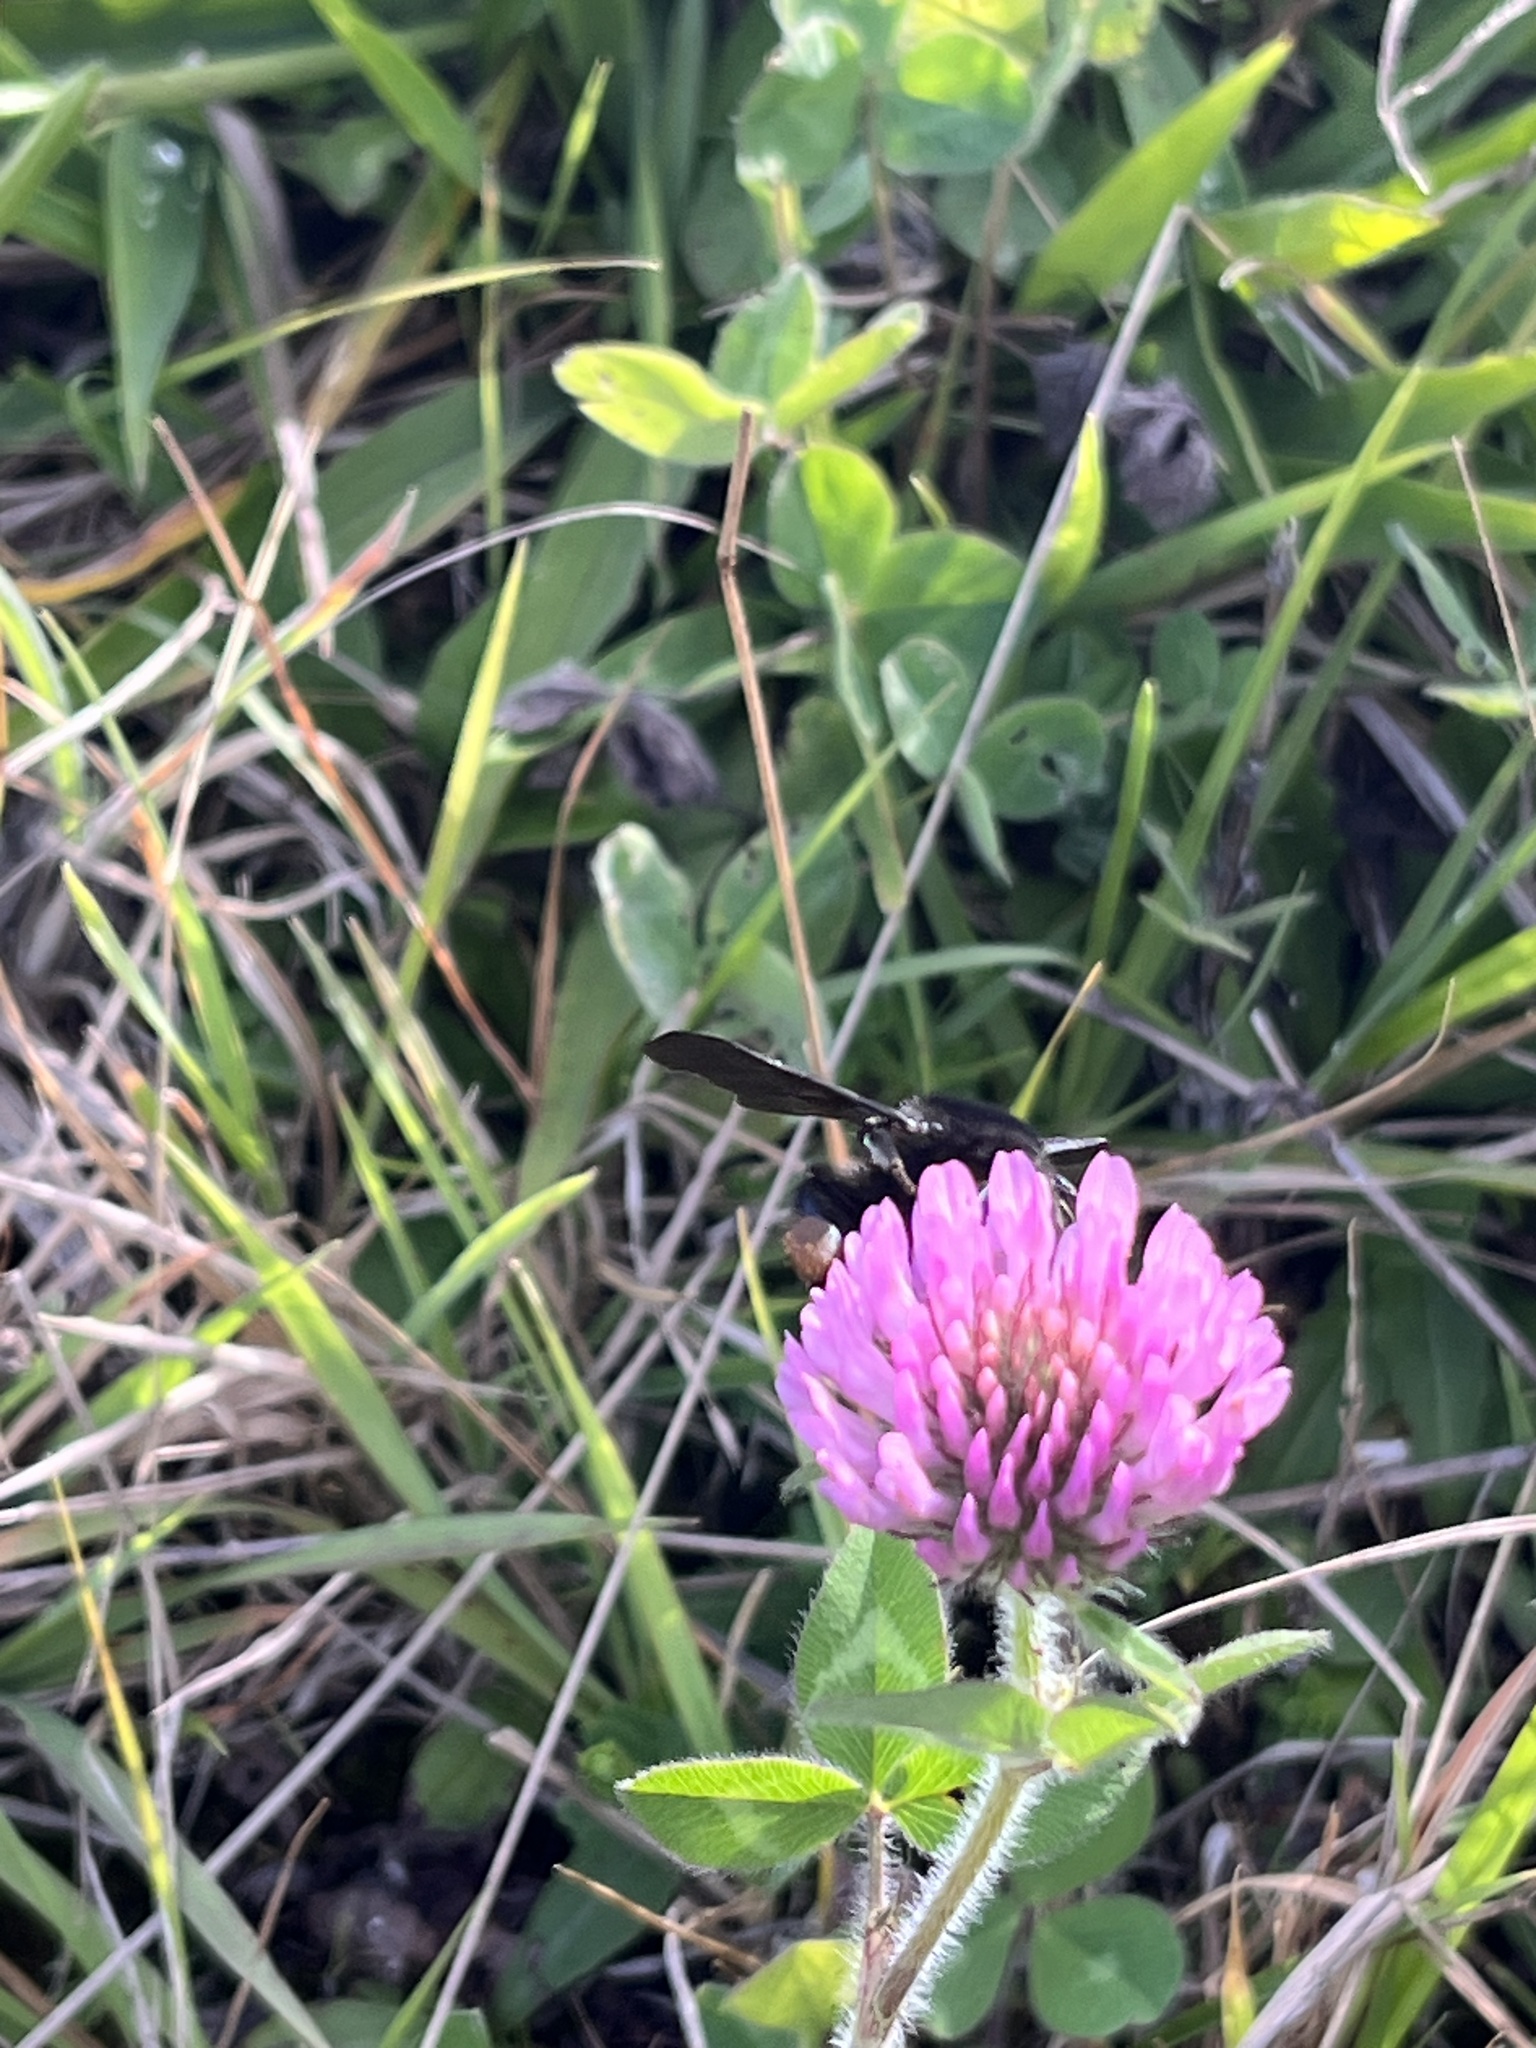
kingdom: Plantae
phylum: Tracheophyta
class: Magnoliopsida
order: Fabales
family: Fabaceae
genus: Trifolium
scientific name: Trifolium pratense
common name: Red clover
